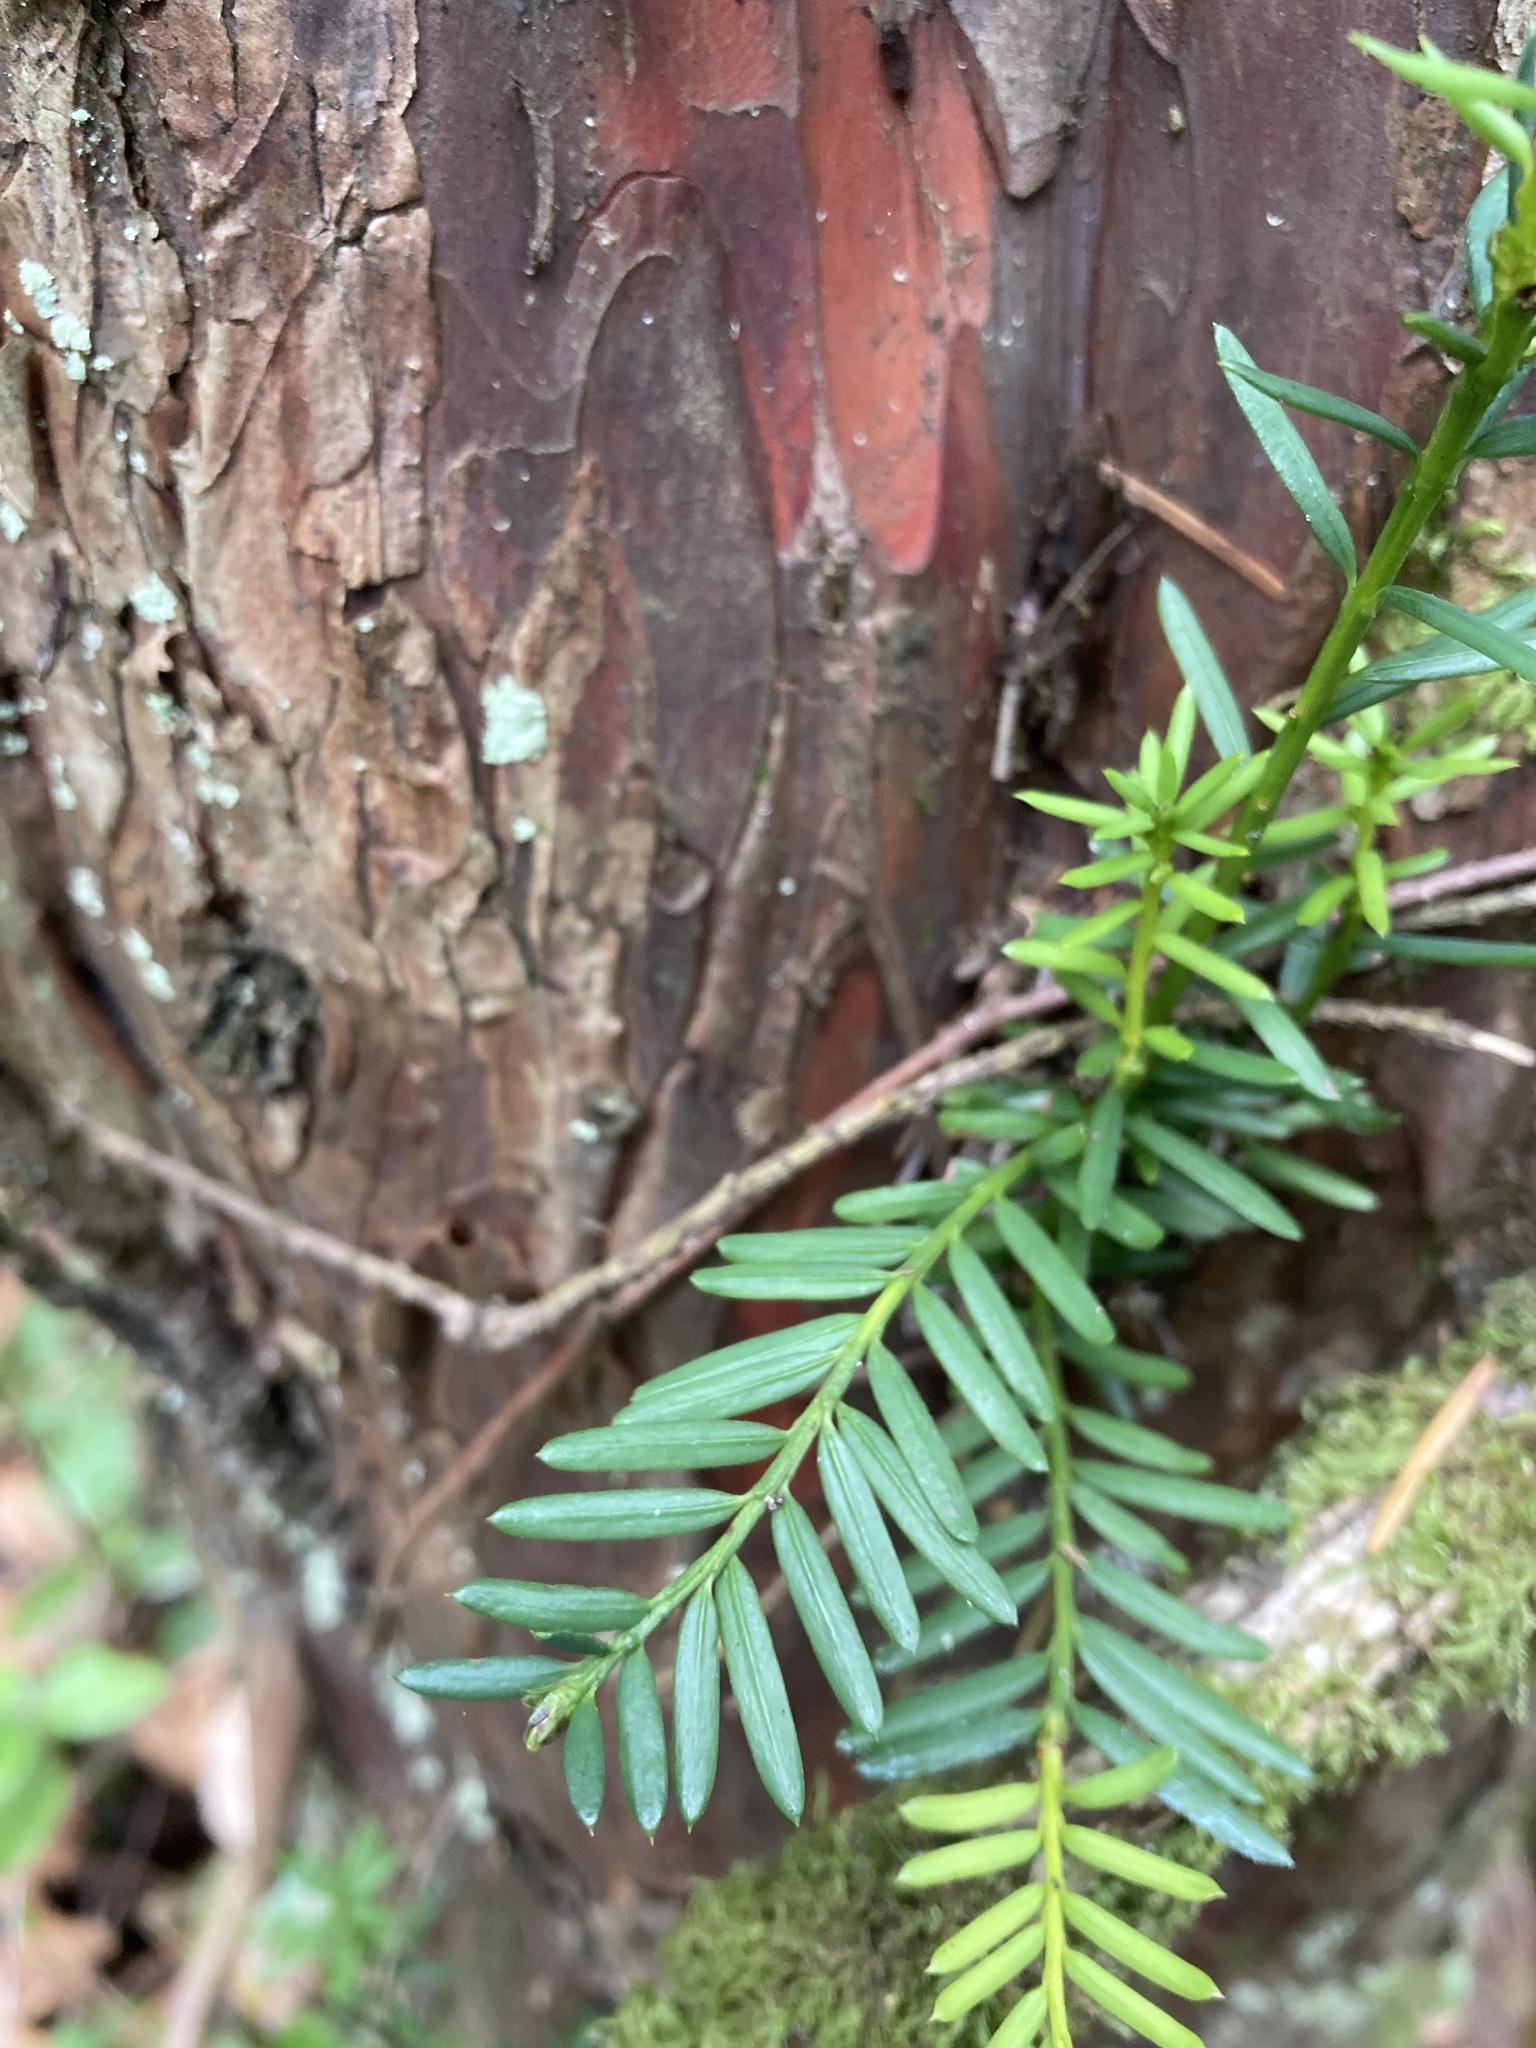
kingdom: Plantae
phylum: Tracheophyta
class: Pinopsida
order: Pinales
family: Taxaceae
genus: Taxus
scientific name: Taxus brevifolia
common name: Pacific yew
